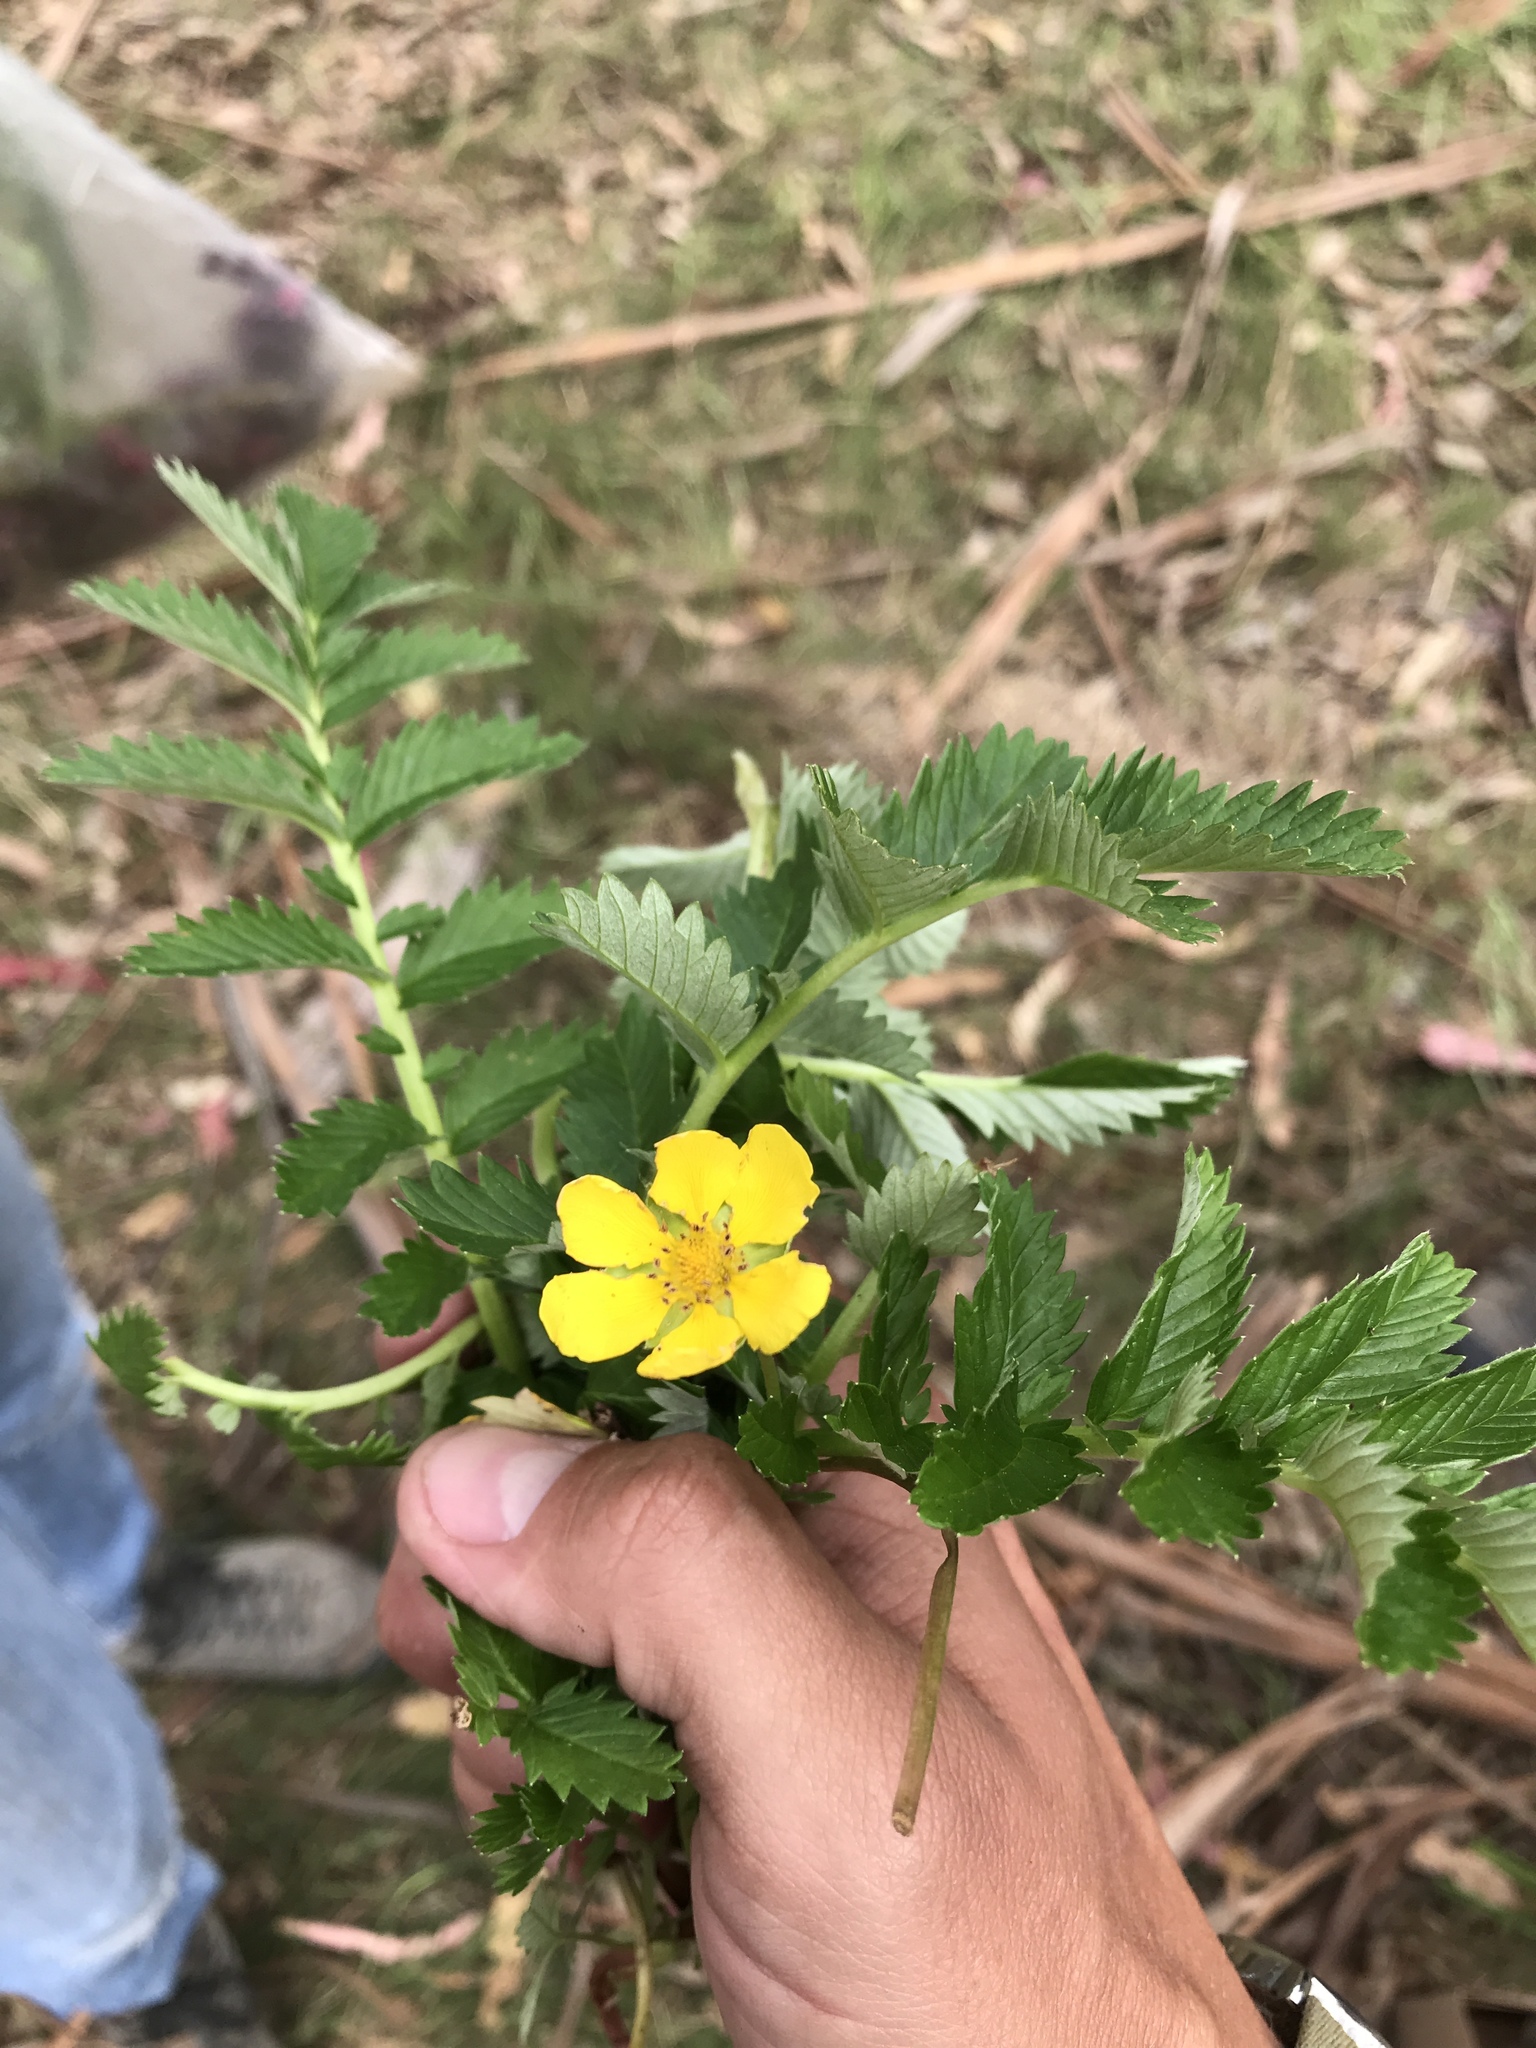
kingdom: Plantae
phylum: Tracheophyta
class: Magnoliopsida
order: Rosales
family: Rosaceae
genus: Argentina
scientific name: Argentina anserina
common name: Common silverweed
